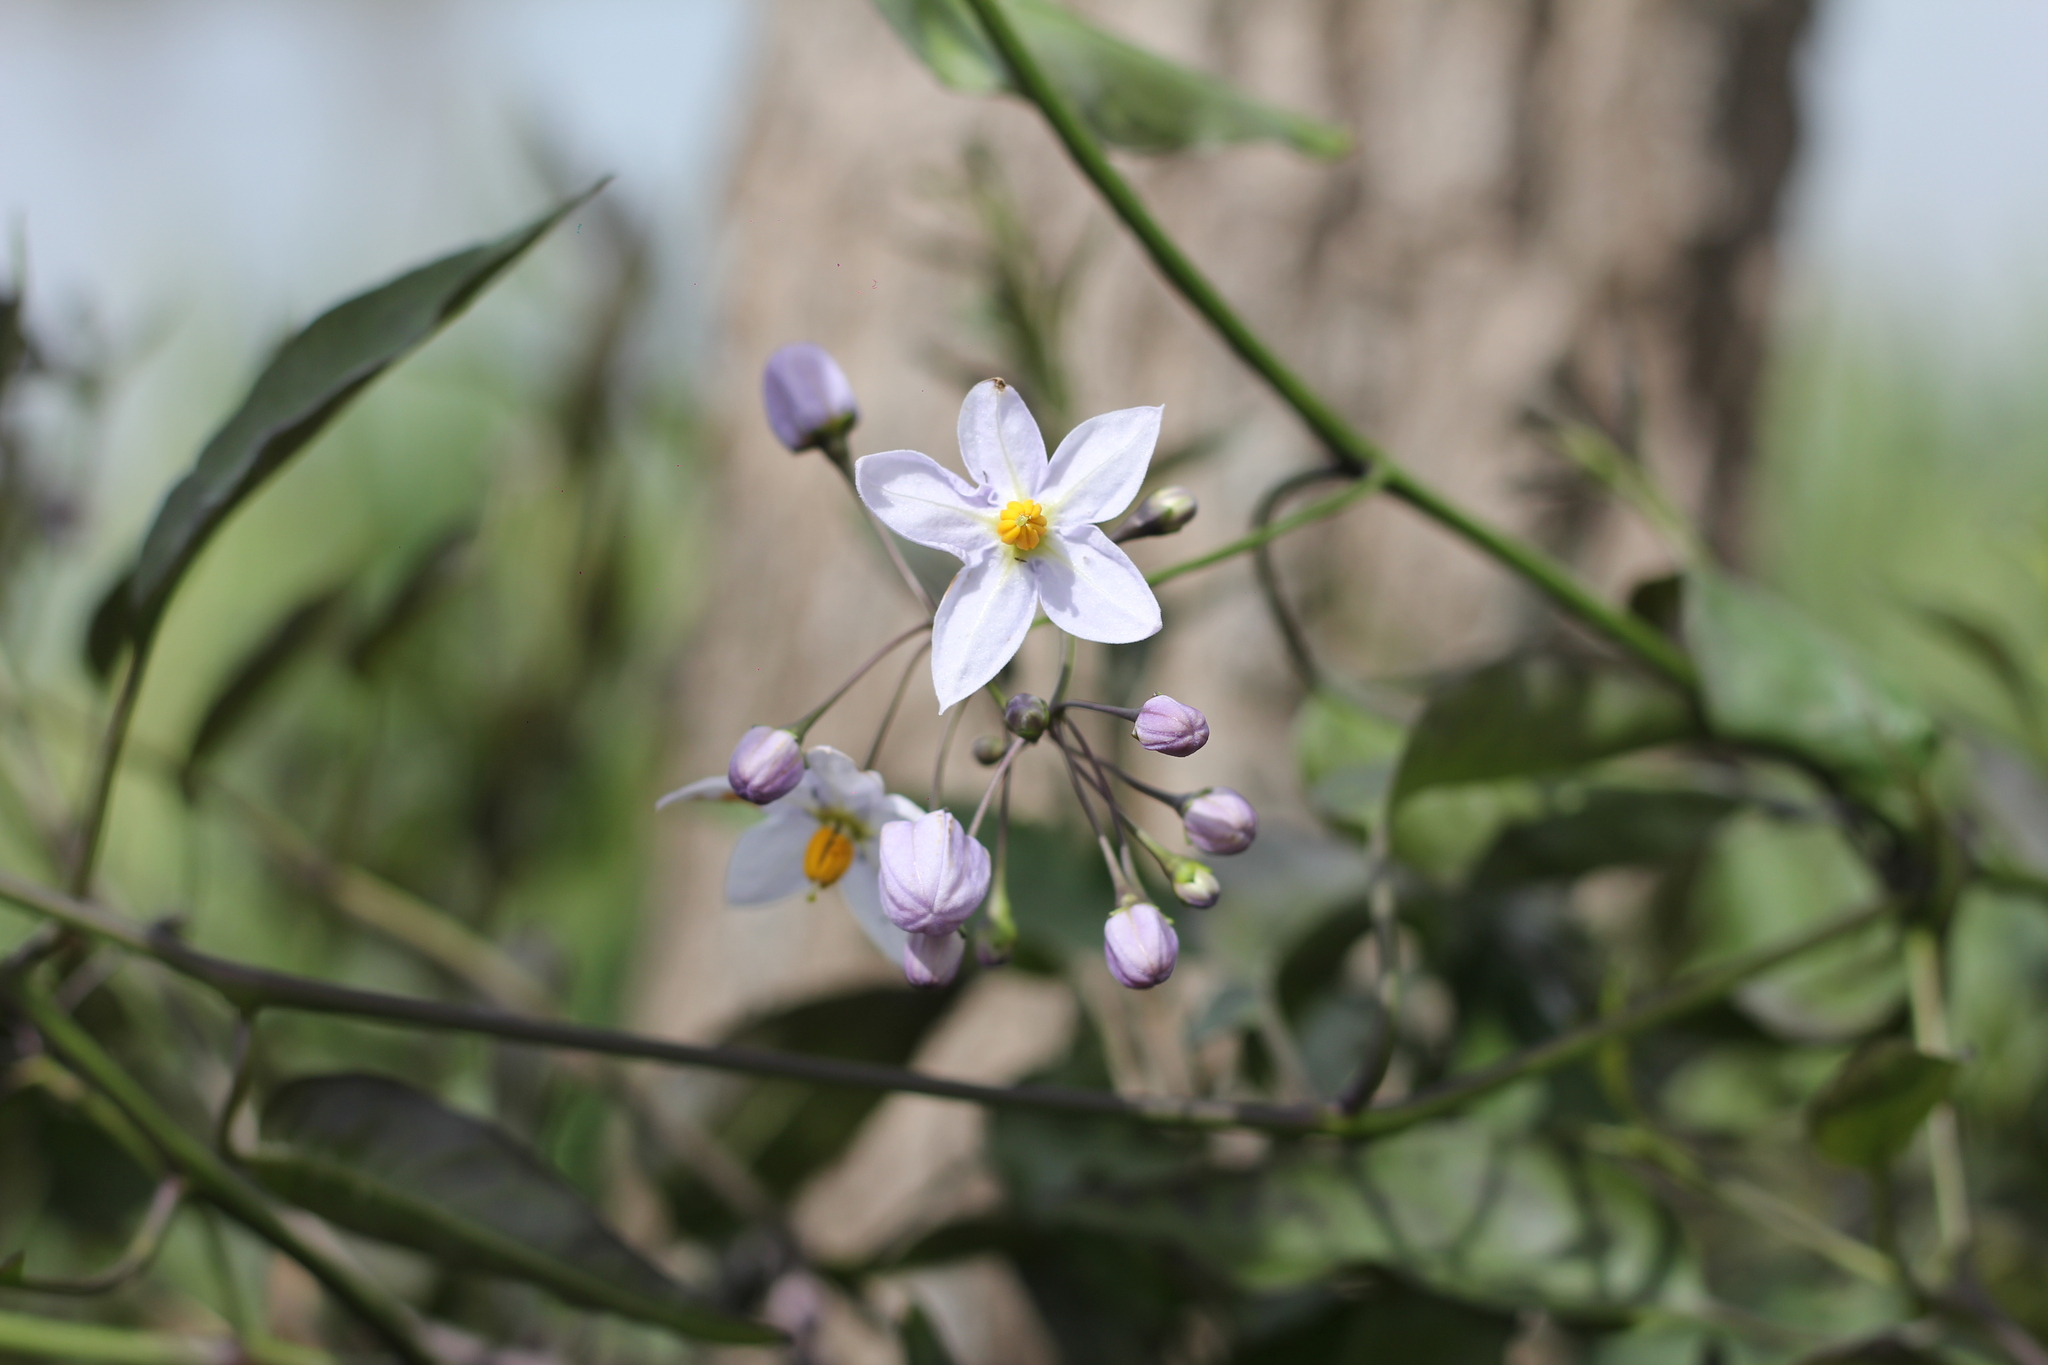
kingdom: Plantae
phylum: Tracheophyta
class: Magnoliopsida
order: Solanales
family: Solanaceae
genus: Solanum
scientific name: Solanum laxum
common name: Nightshade
